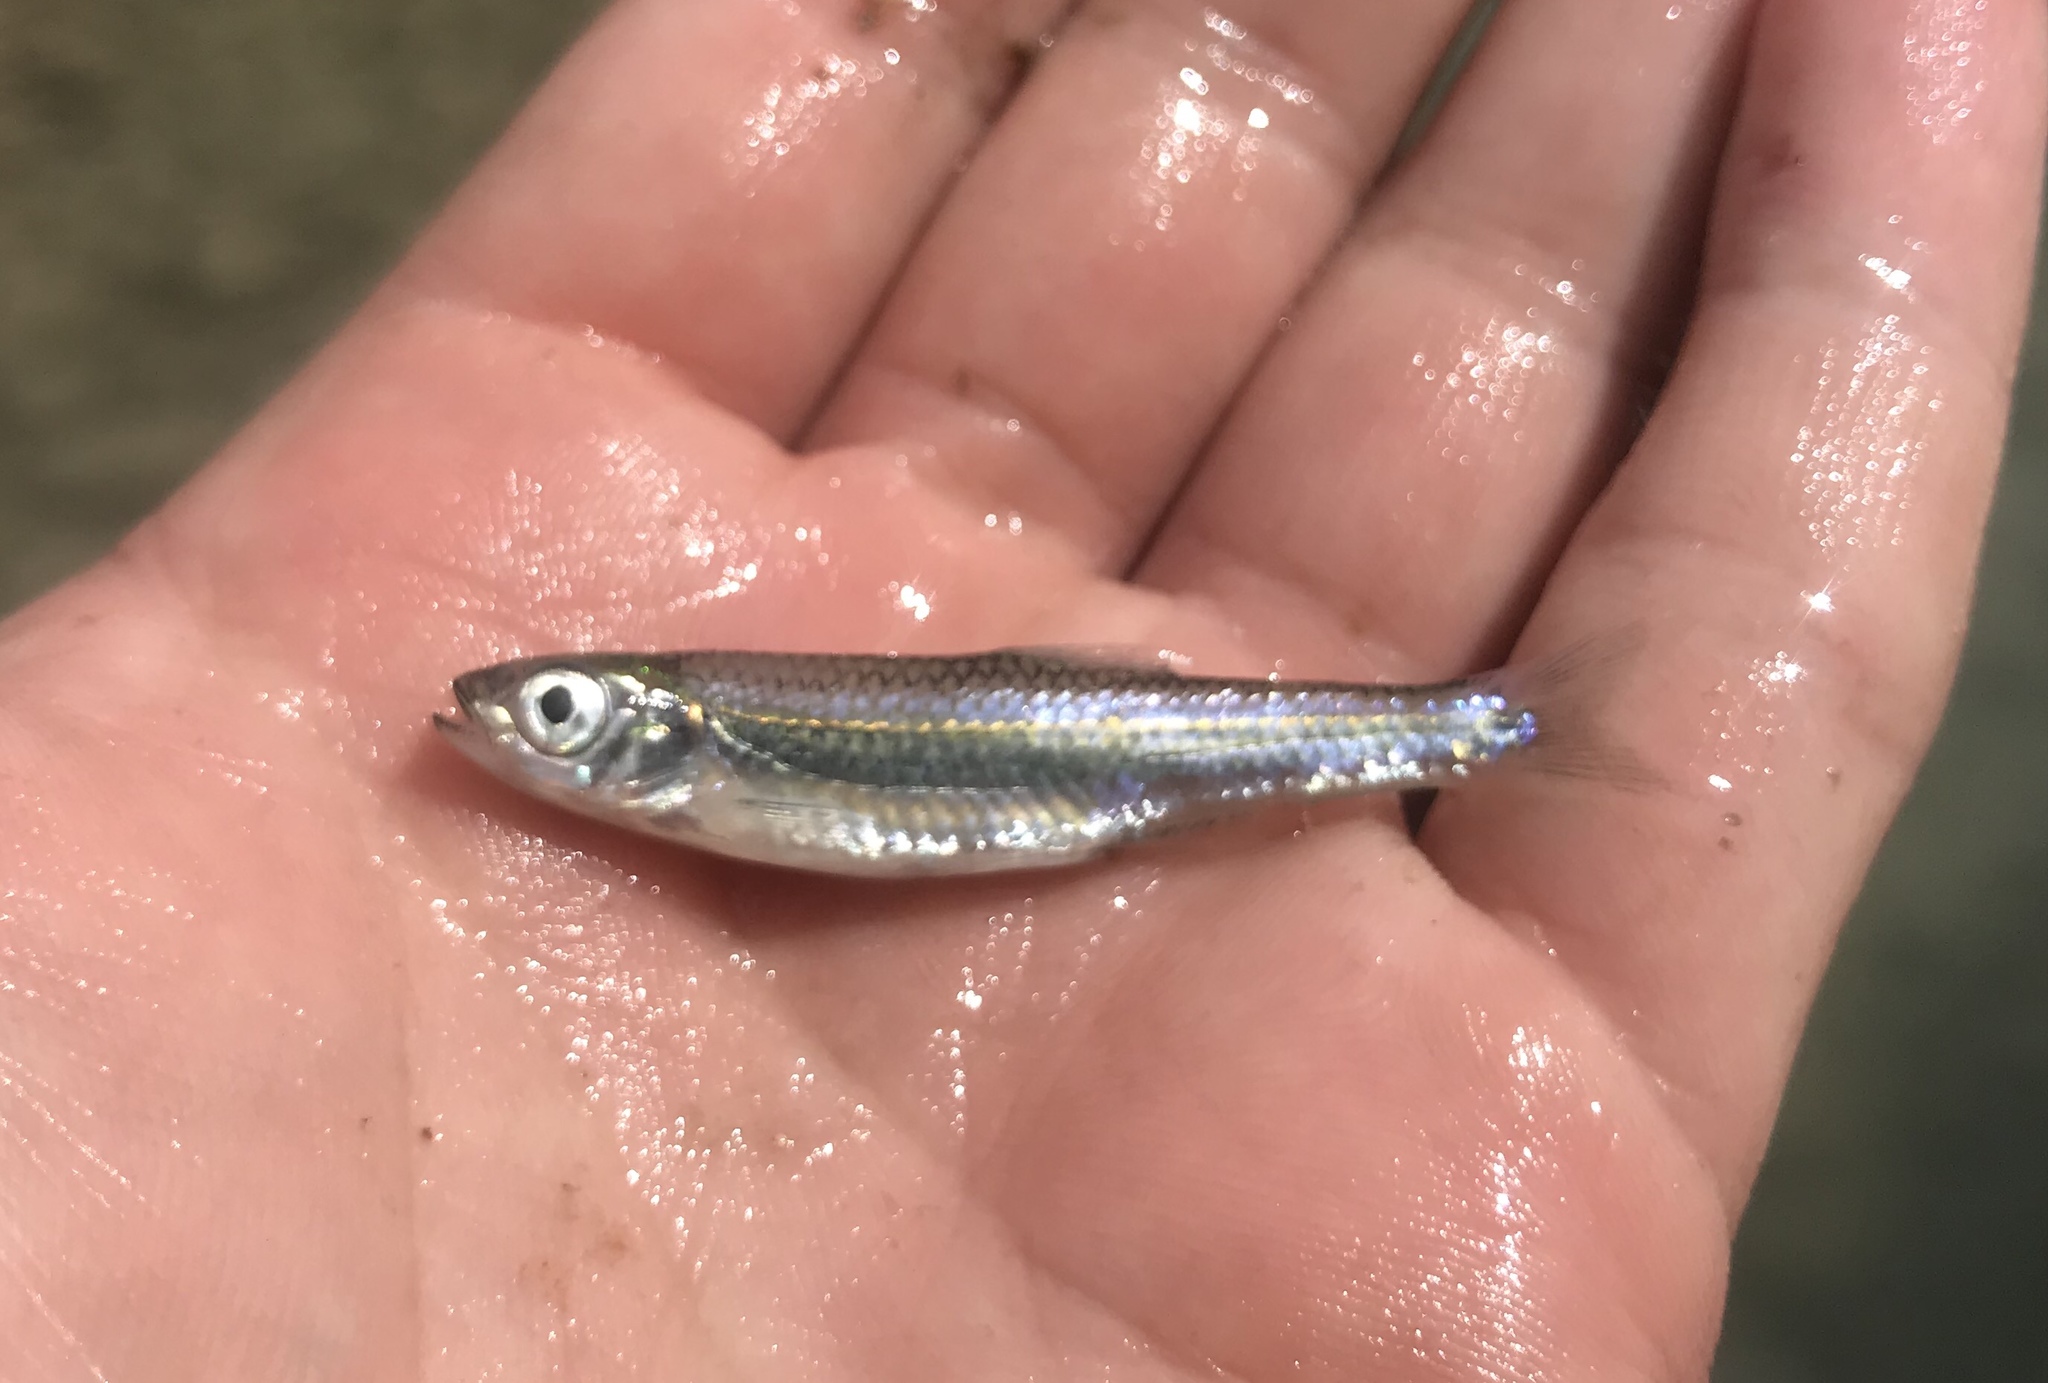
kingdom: Animalia
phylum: Chordata
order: Cypriniformes
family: Cyprinidae
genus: Notropis
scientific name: Notropis amabilis
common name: Texas shiner
